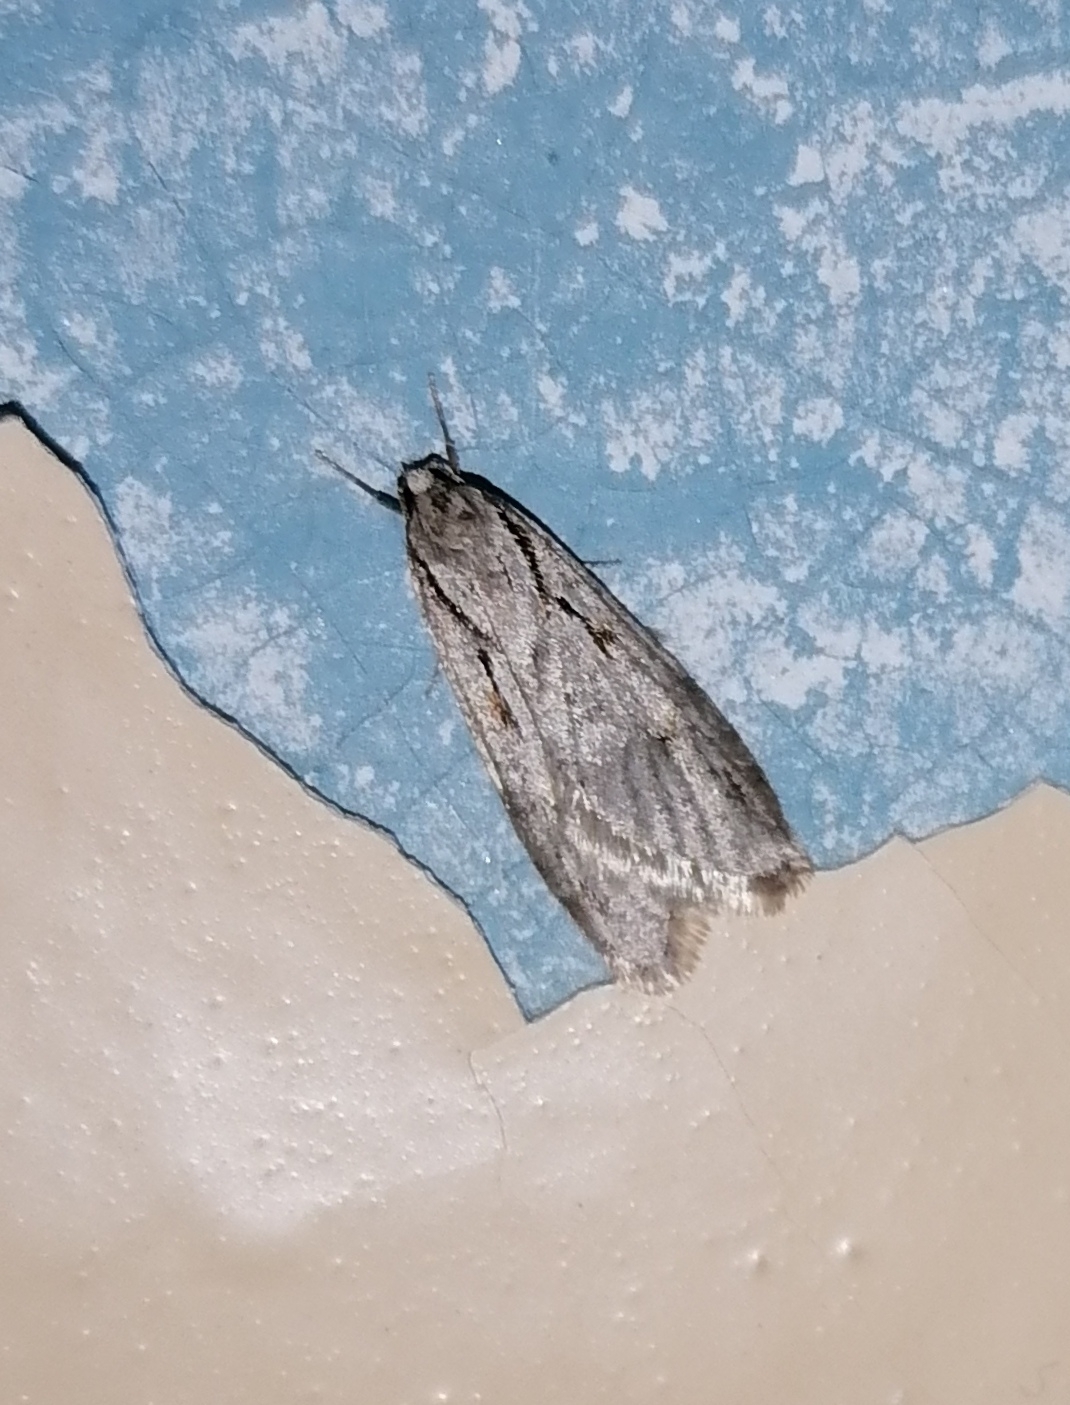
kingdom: Animalia
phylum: Arthropoda
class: Insecta
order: Lepidoptera
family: Depressariidae
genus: Semioscopis
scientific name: Semioscopis avellanella
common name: Early flat-body
